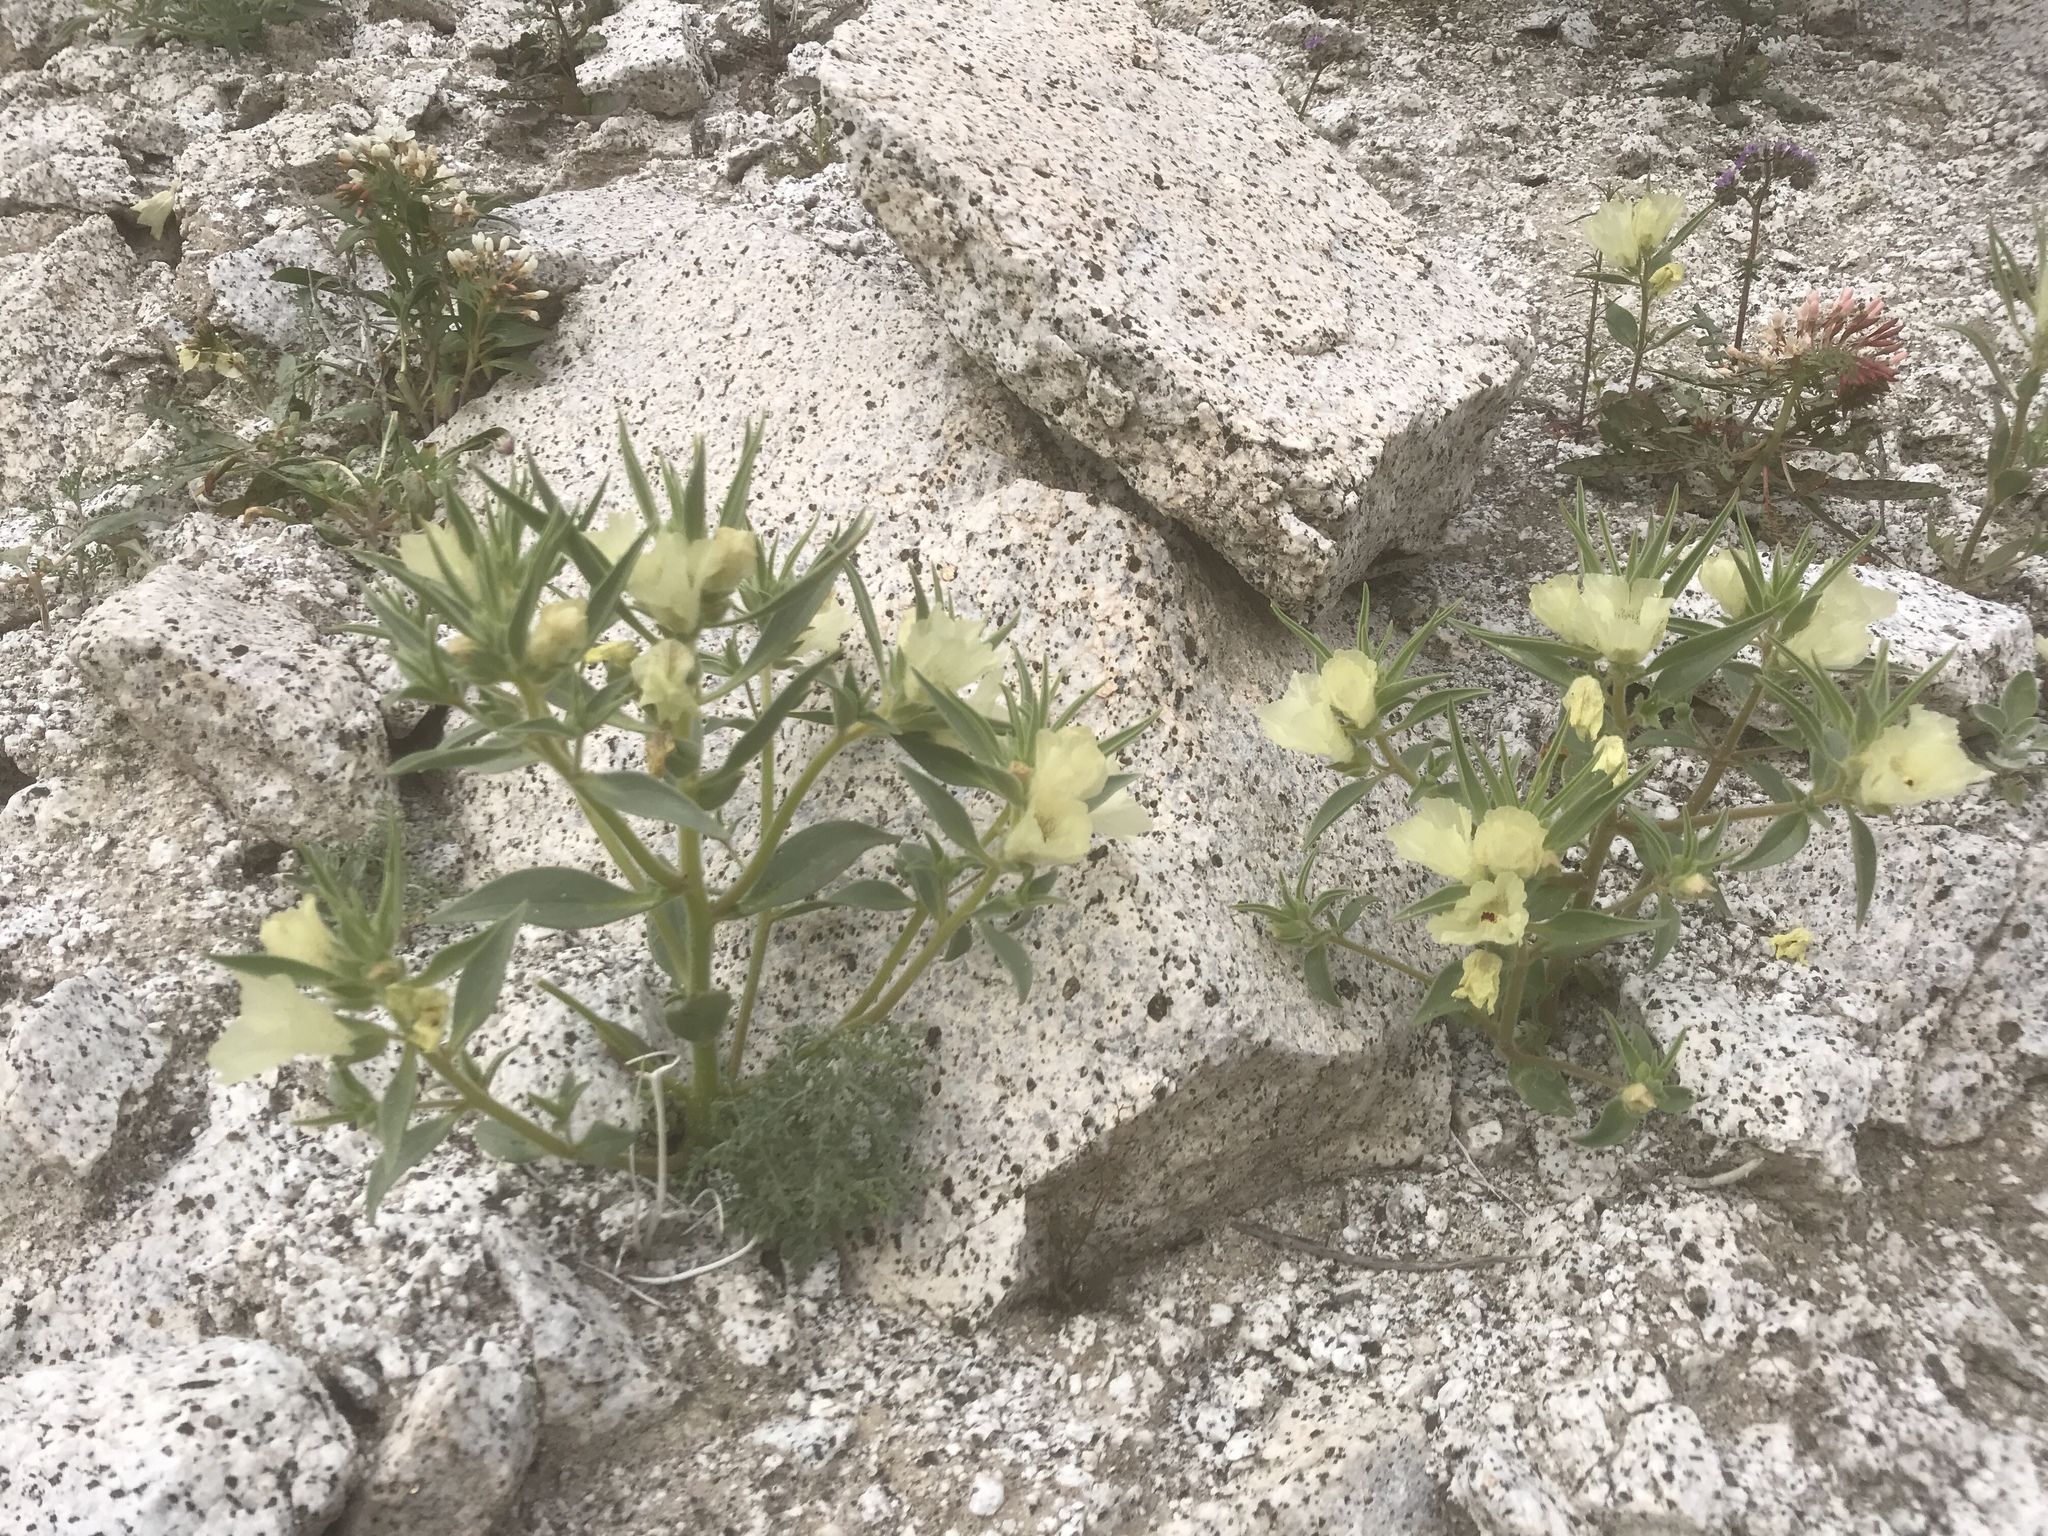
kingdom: Plantae
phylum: Tracheophyta
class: Magnoliopsida
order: Lamiales
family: Plantaginaceae
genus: Mohavea
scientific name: Mohavea confertiflora
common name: Ghost flower
